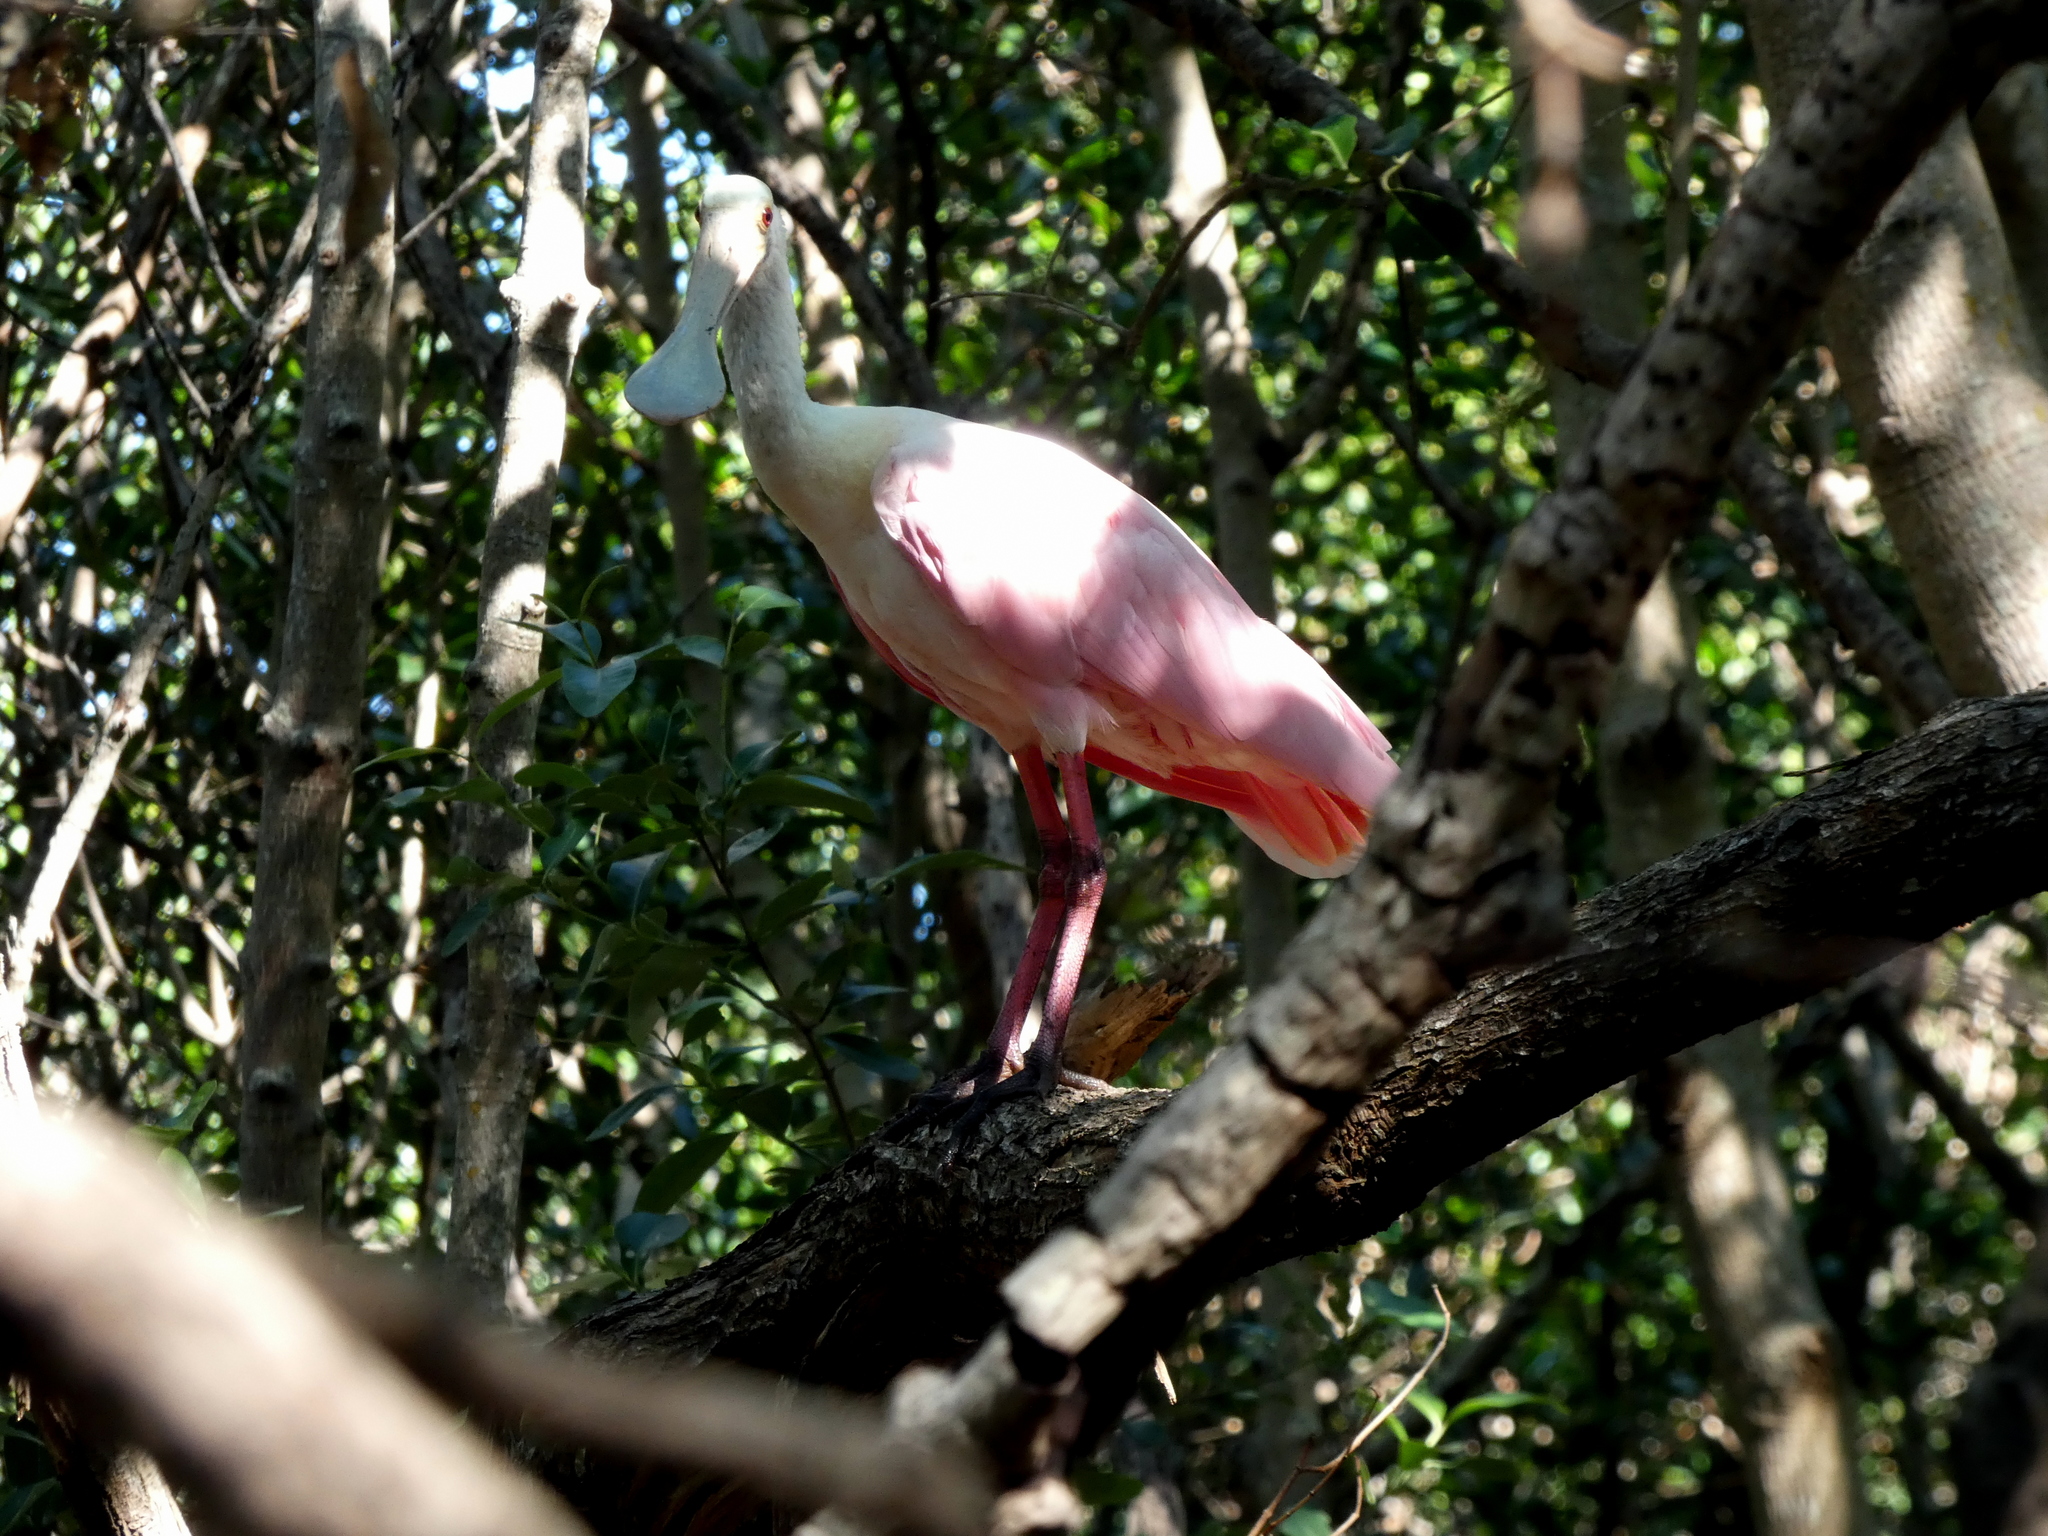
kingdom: Animalia
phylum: Chordata
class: Aves
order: Pelecaniformes
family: Threskiornithidae
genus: Platalea
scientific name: Platalea ajaja
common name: Roseate spoonbill
